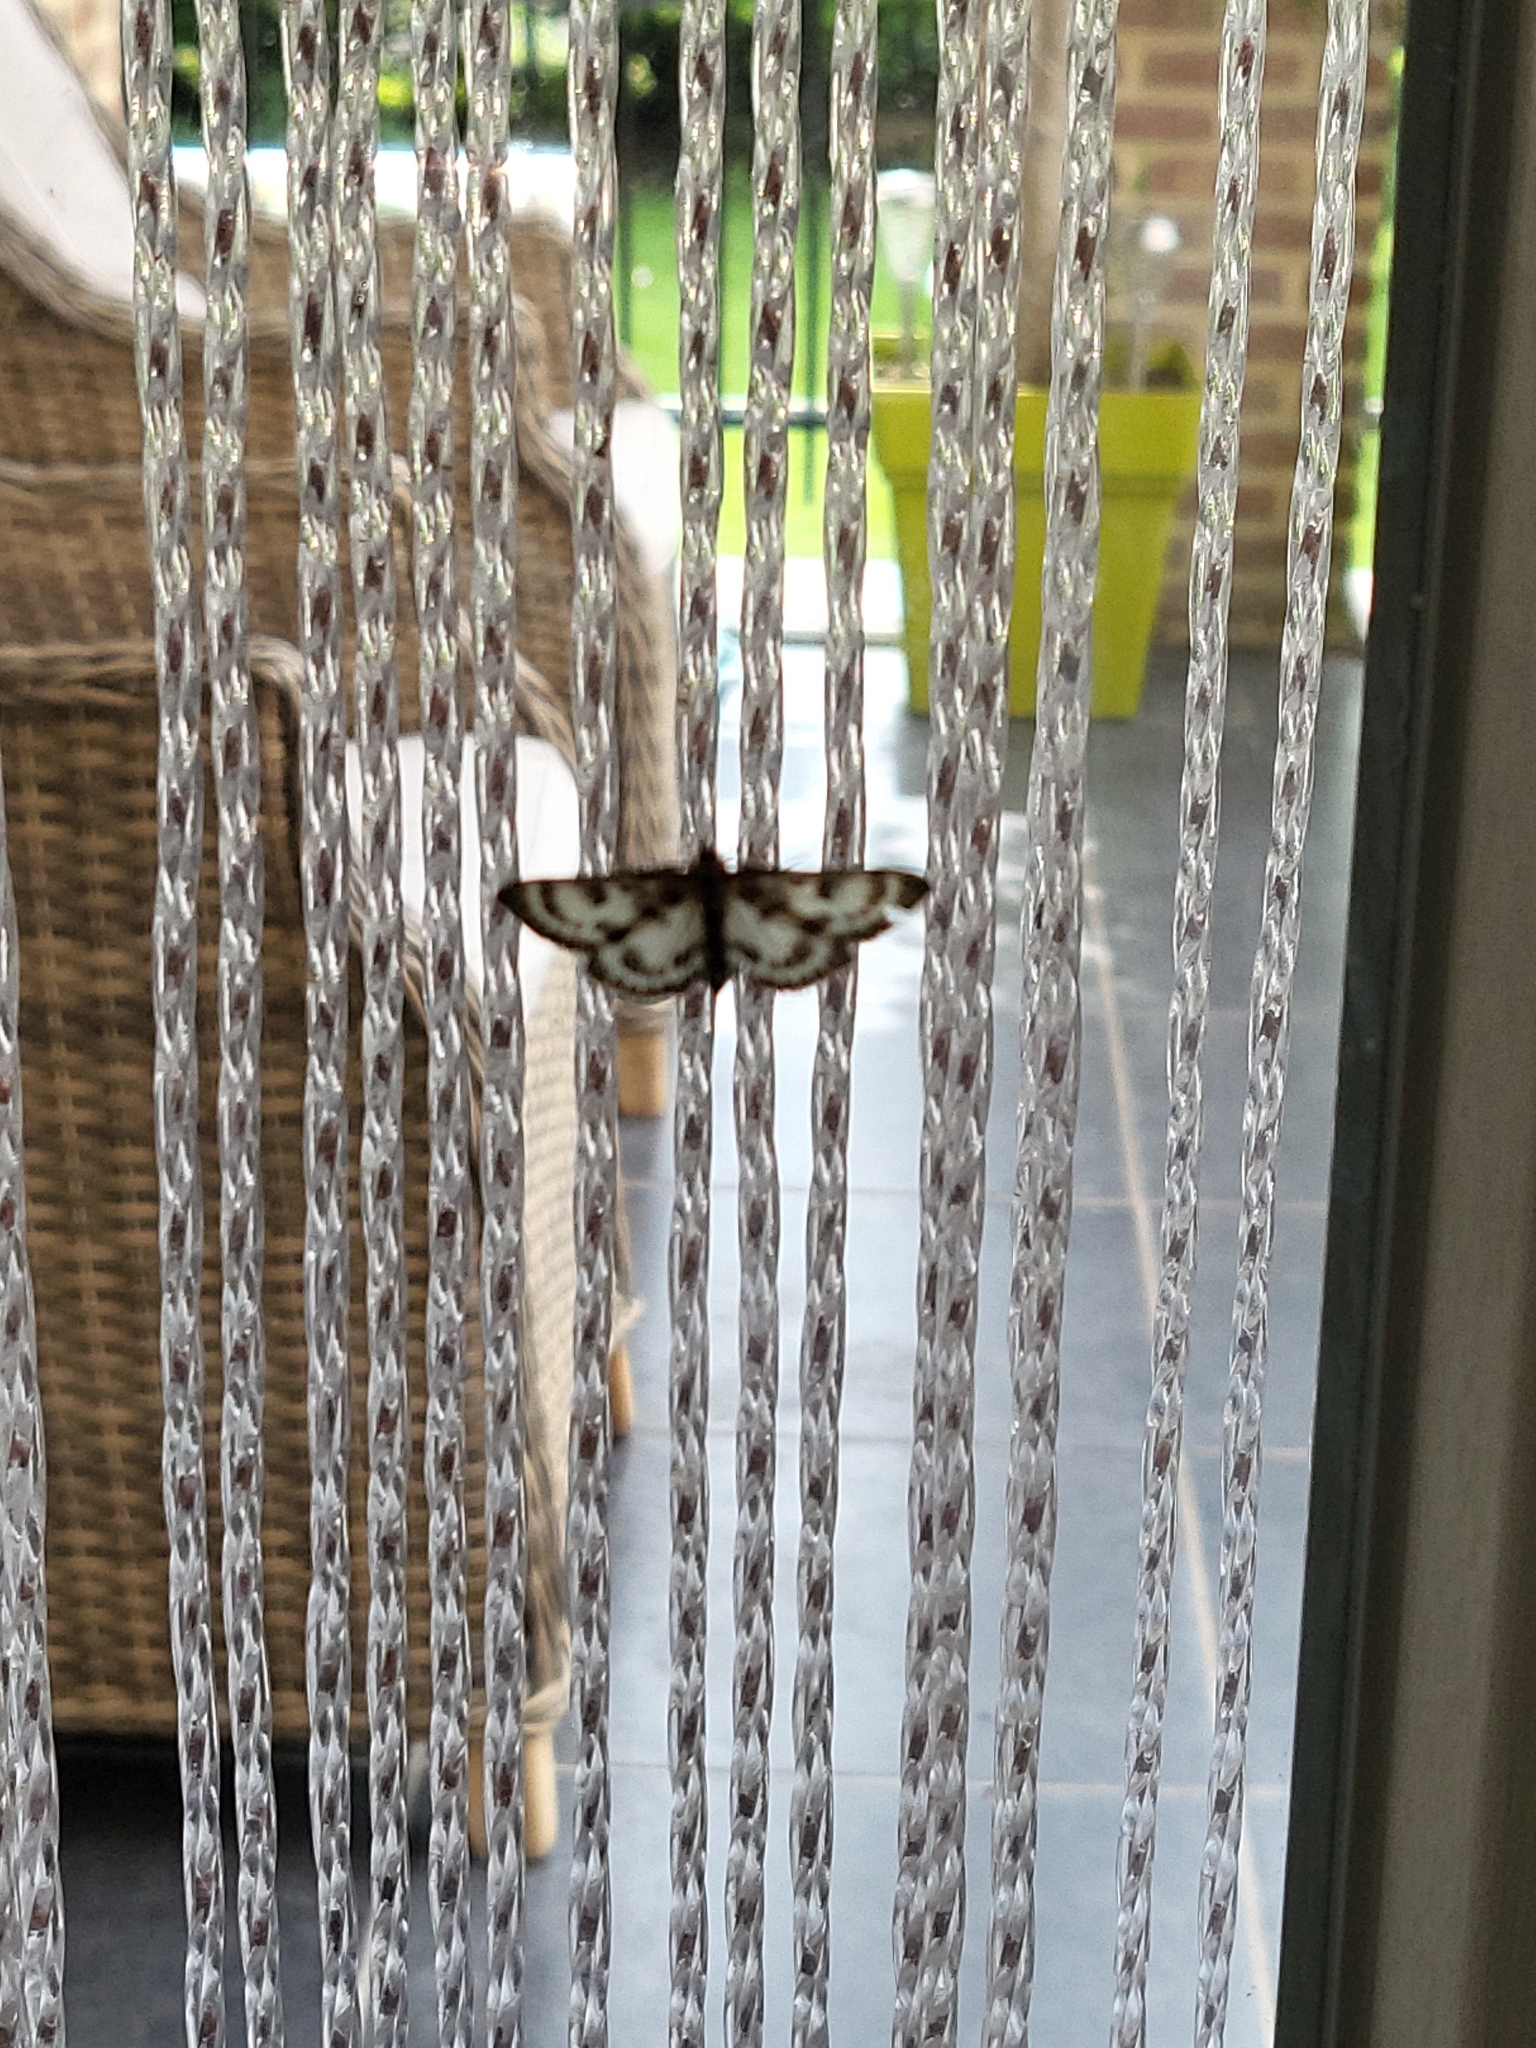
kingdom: Animalia
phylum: Arthropoda
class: Insecta
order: Lepidoptera
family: Crambidae
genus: Anania
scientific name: Anania hortulata
